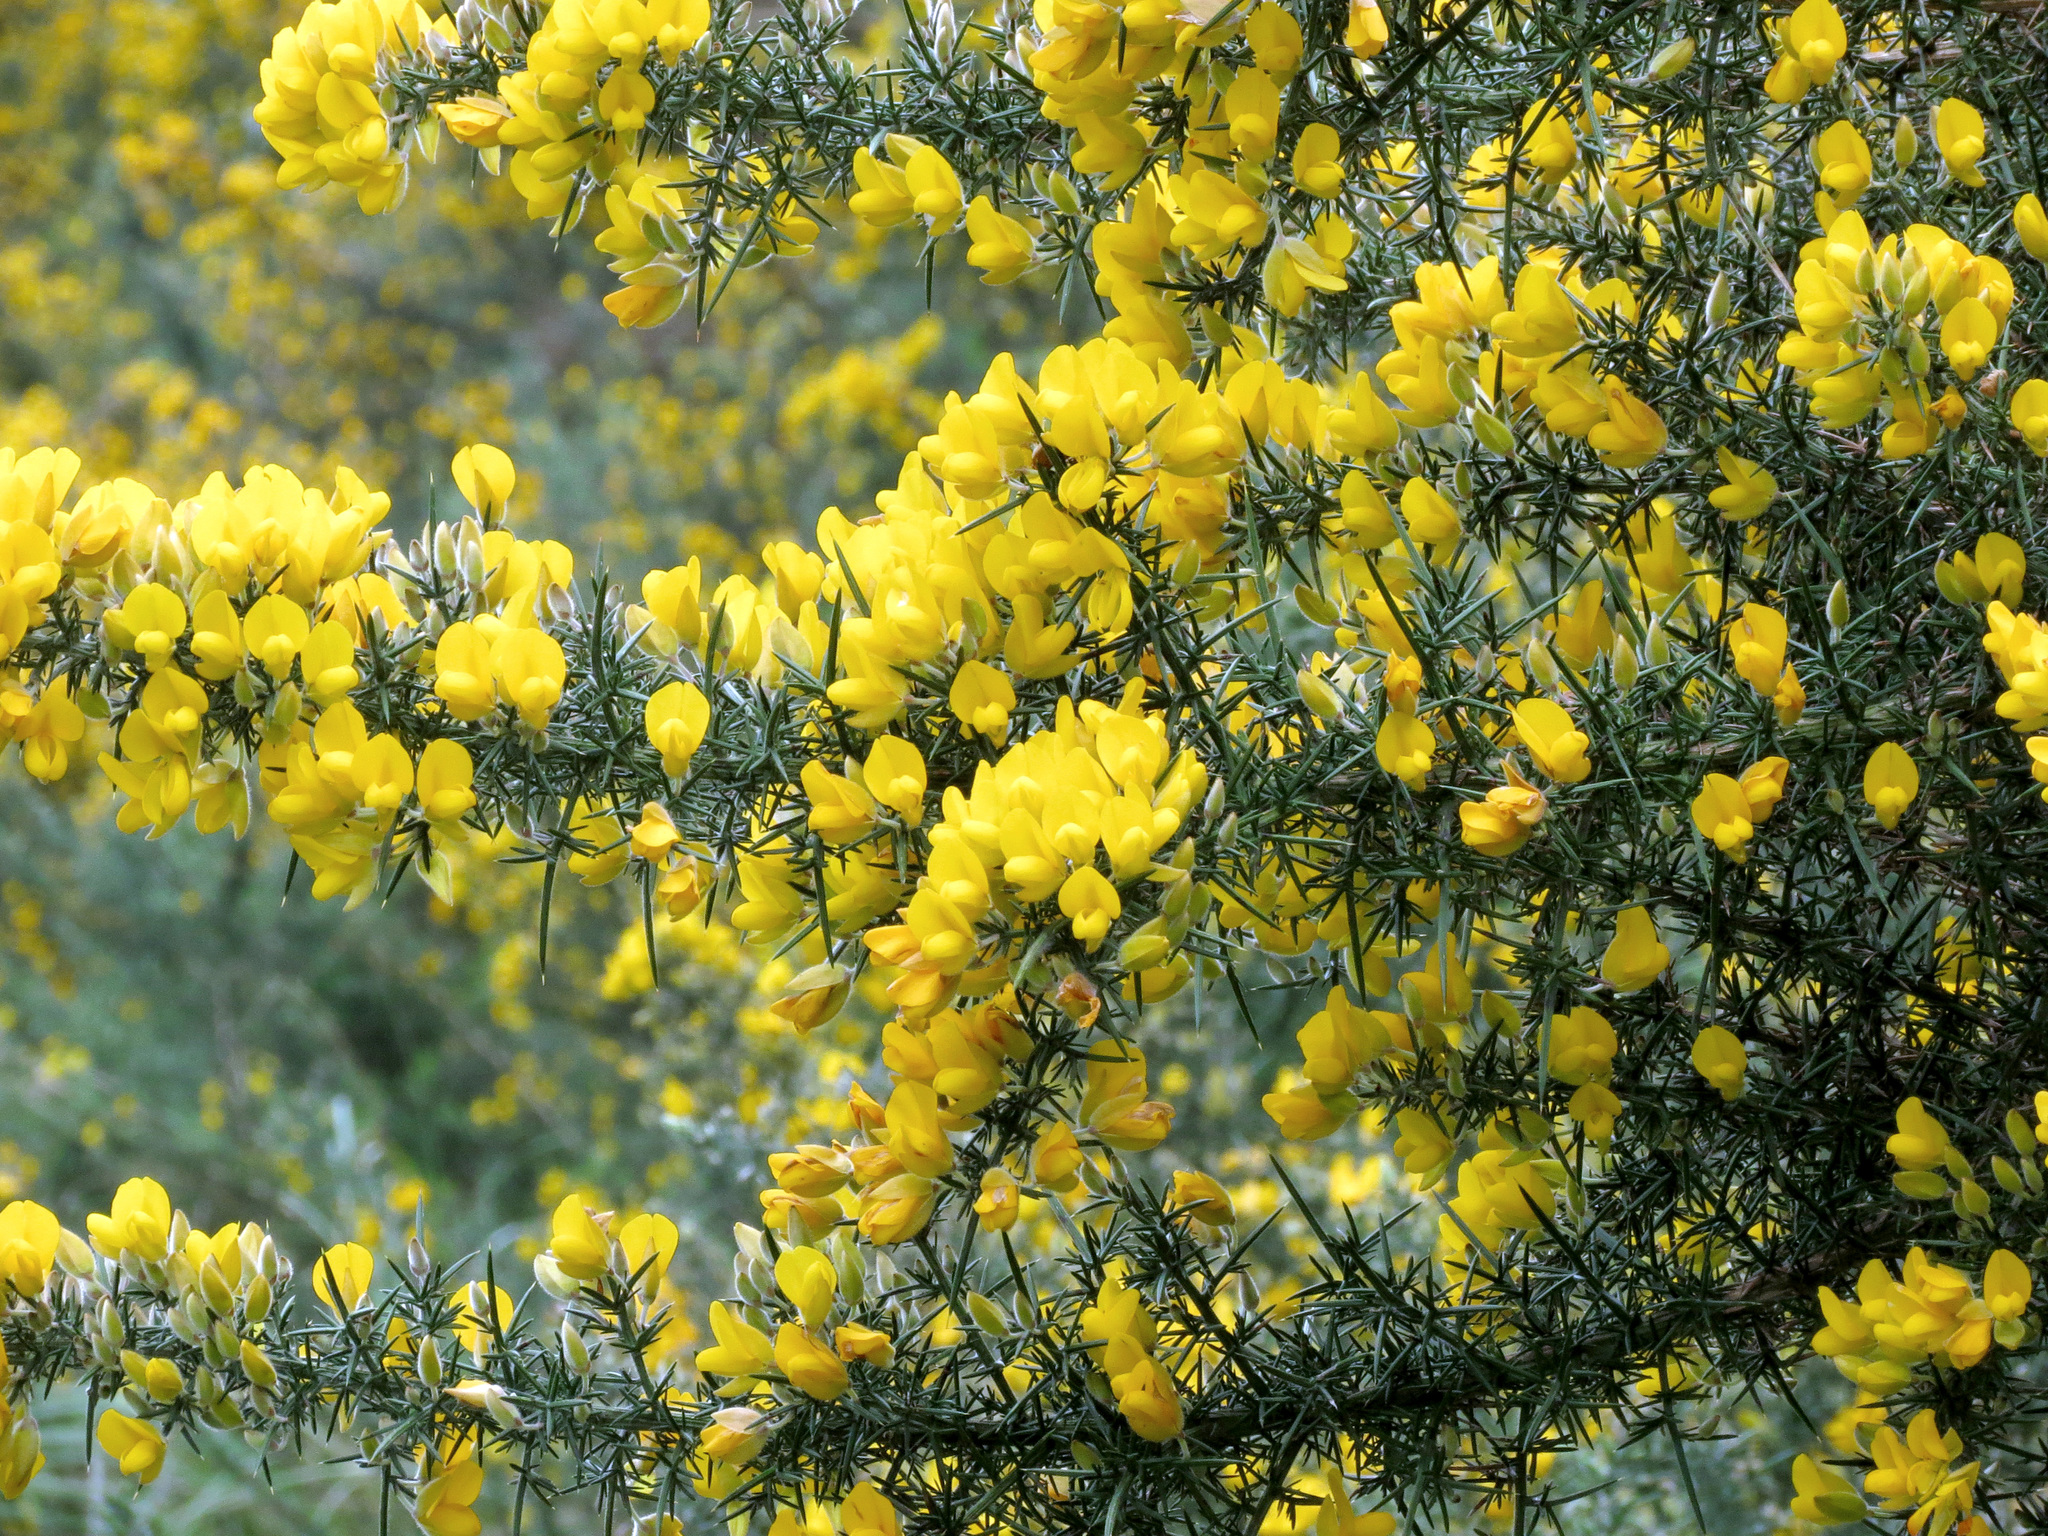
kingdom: Plantae
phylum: Tracheophyta
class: Magnoliopsida
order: Fabales
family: Fabaceae
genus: Ulex
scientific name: Ulex europaeus
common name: Common gorse
